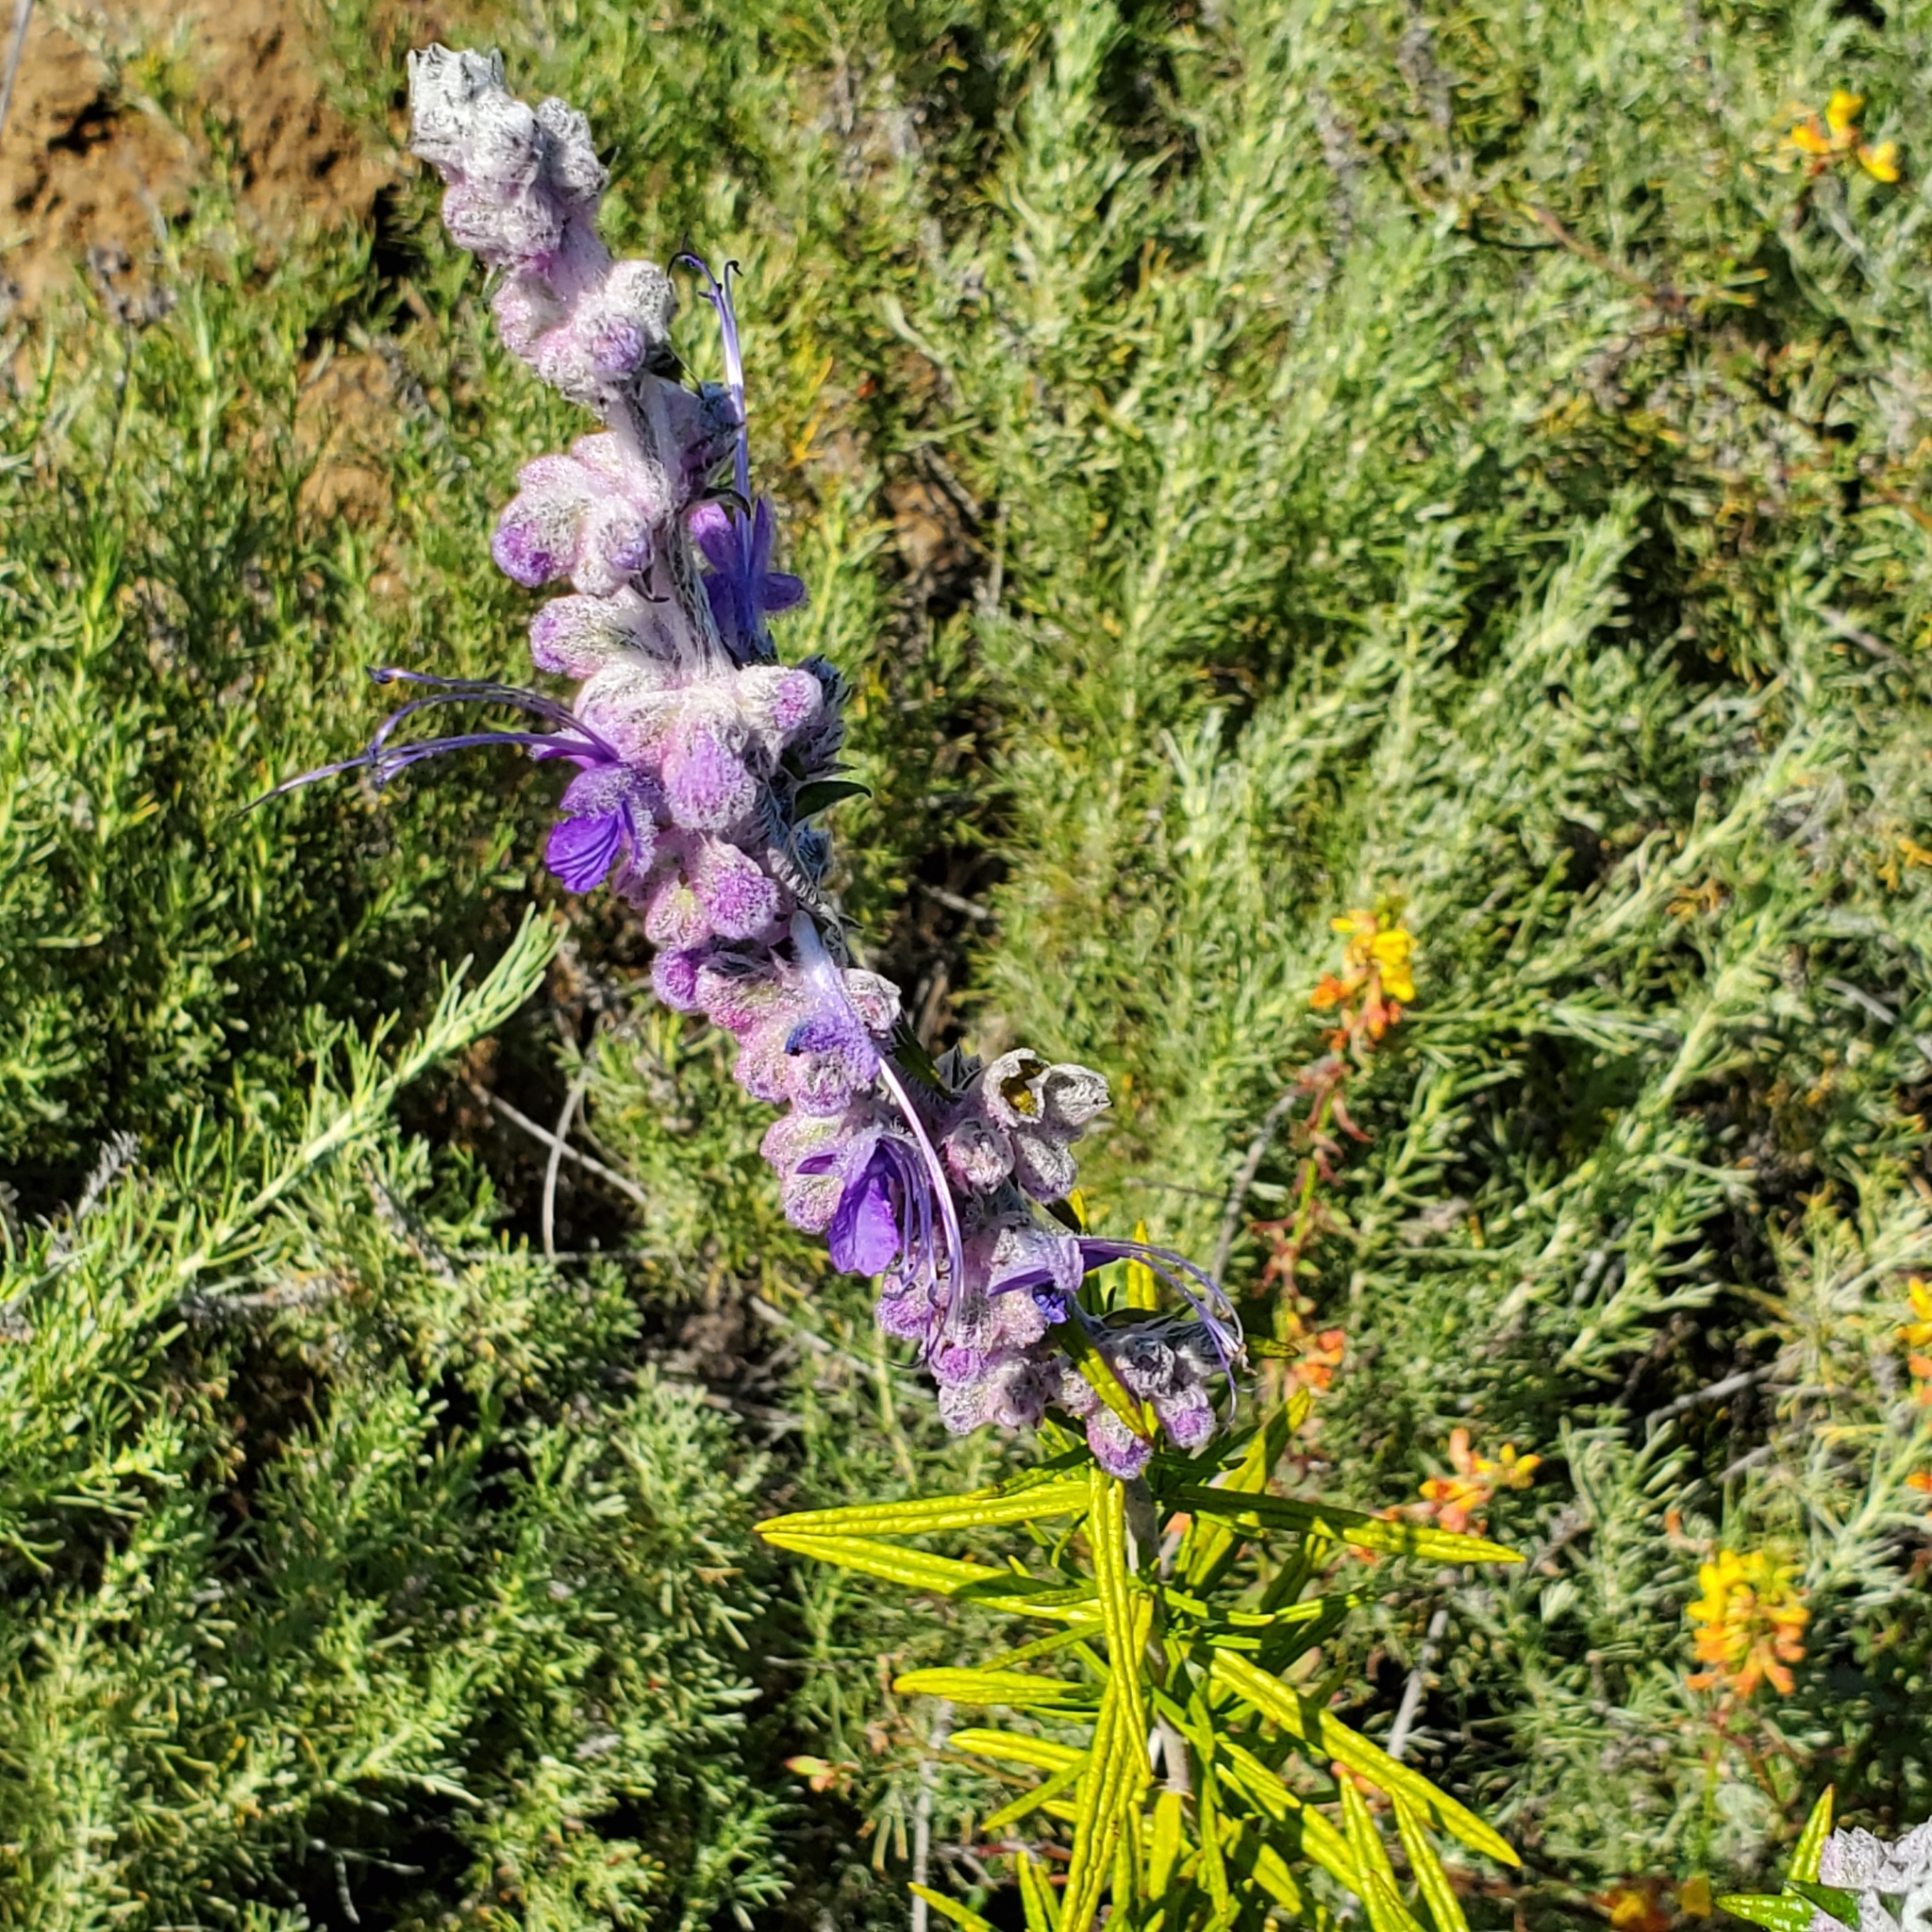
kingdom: Plantae
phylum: Tracheophyta
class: Magnoliopsida
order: Lamiales
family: Lamiaceae
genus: Trichostema
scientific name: Trichostema lanatum
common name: Woolly bluecurls
